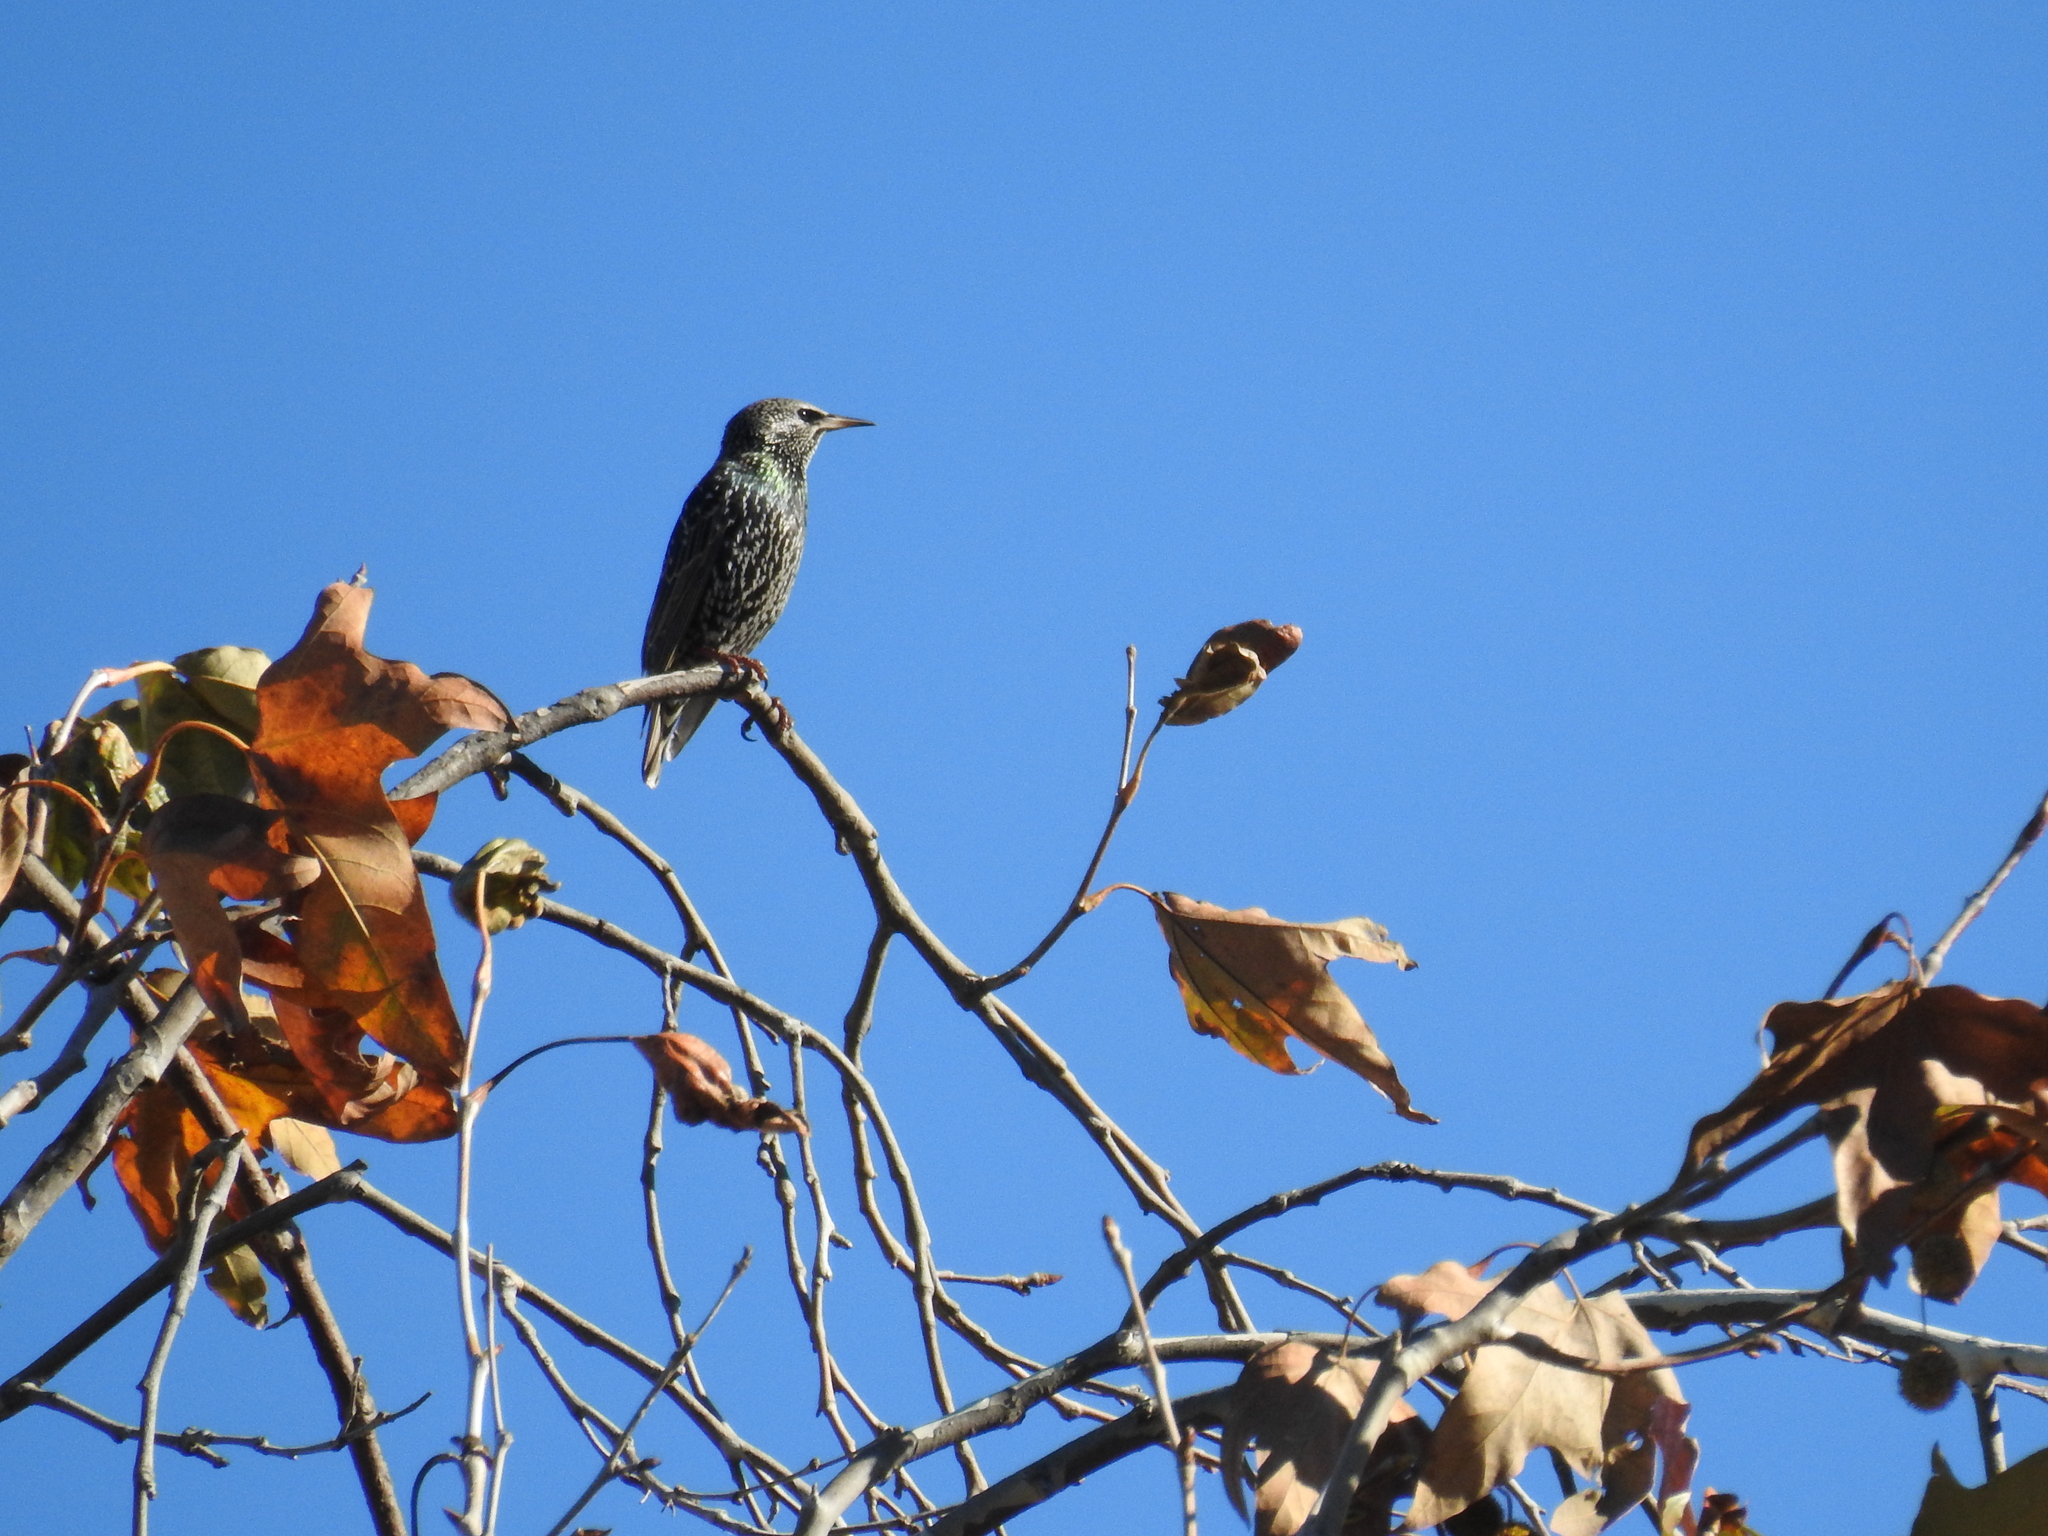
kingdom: Animalia
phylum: Chordata
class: Aves
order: Passeriformes
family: Sturnidae
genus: Sturnus
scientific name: Sturnus vulgaris
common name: Common starling
